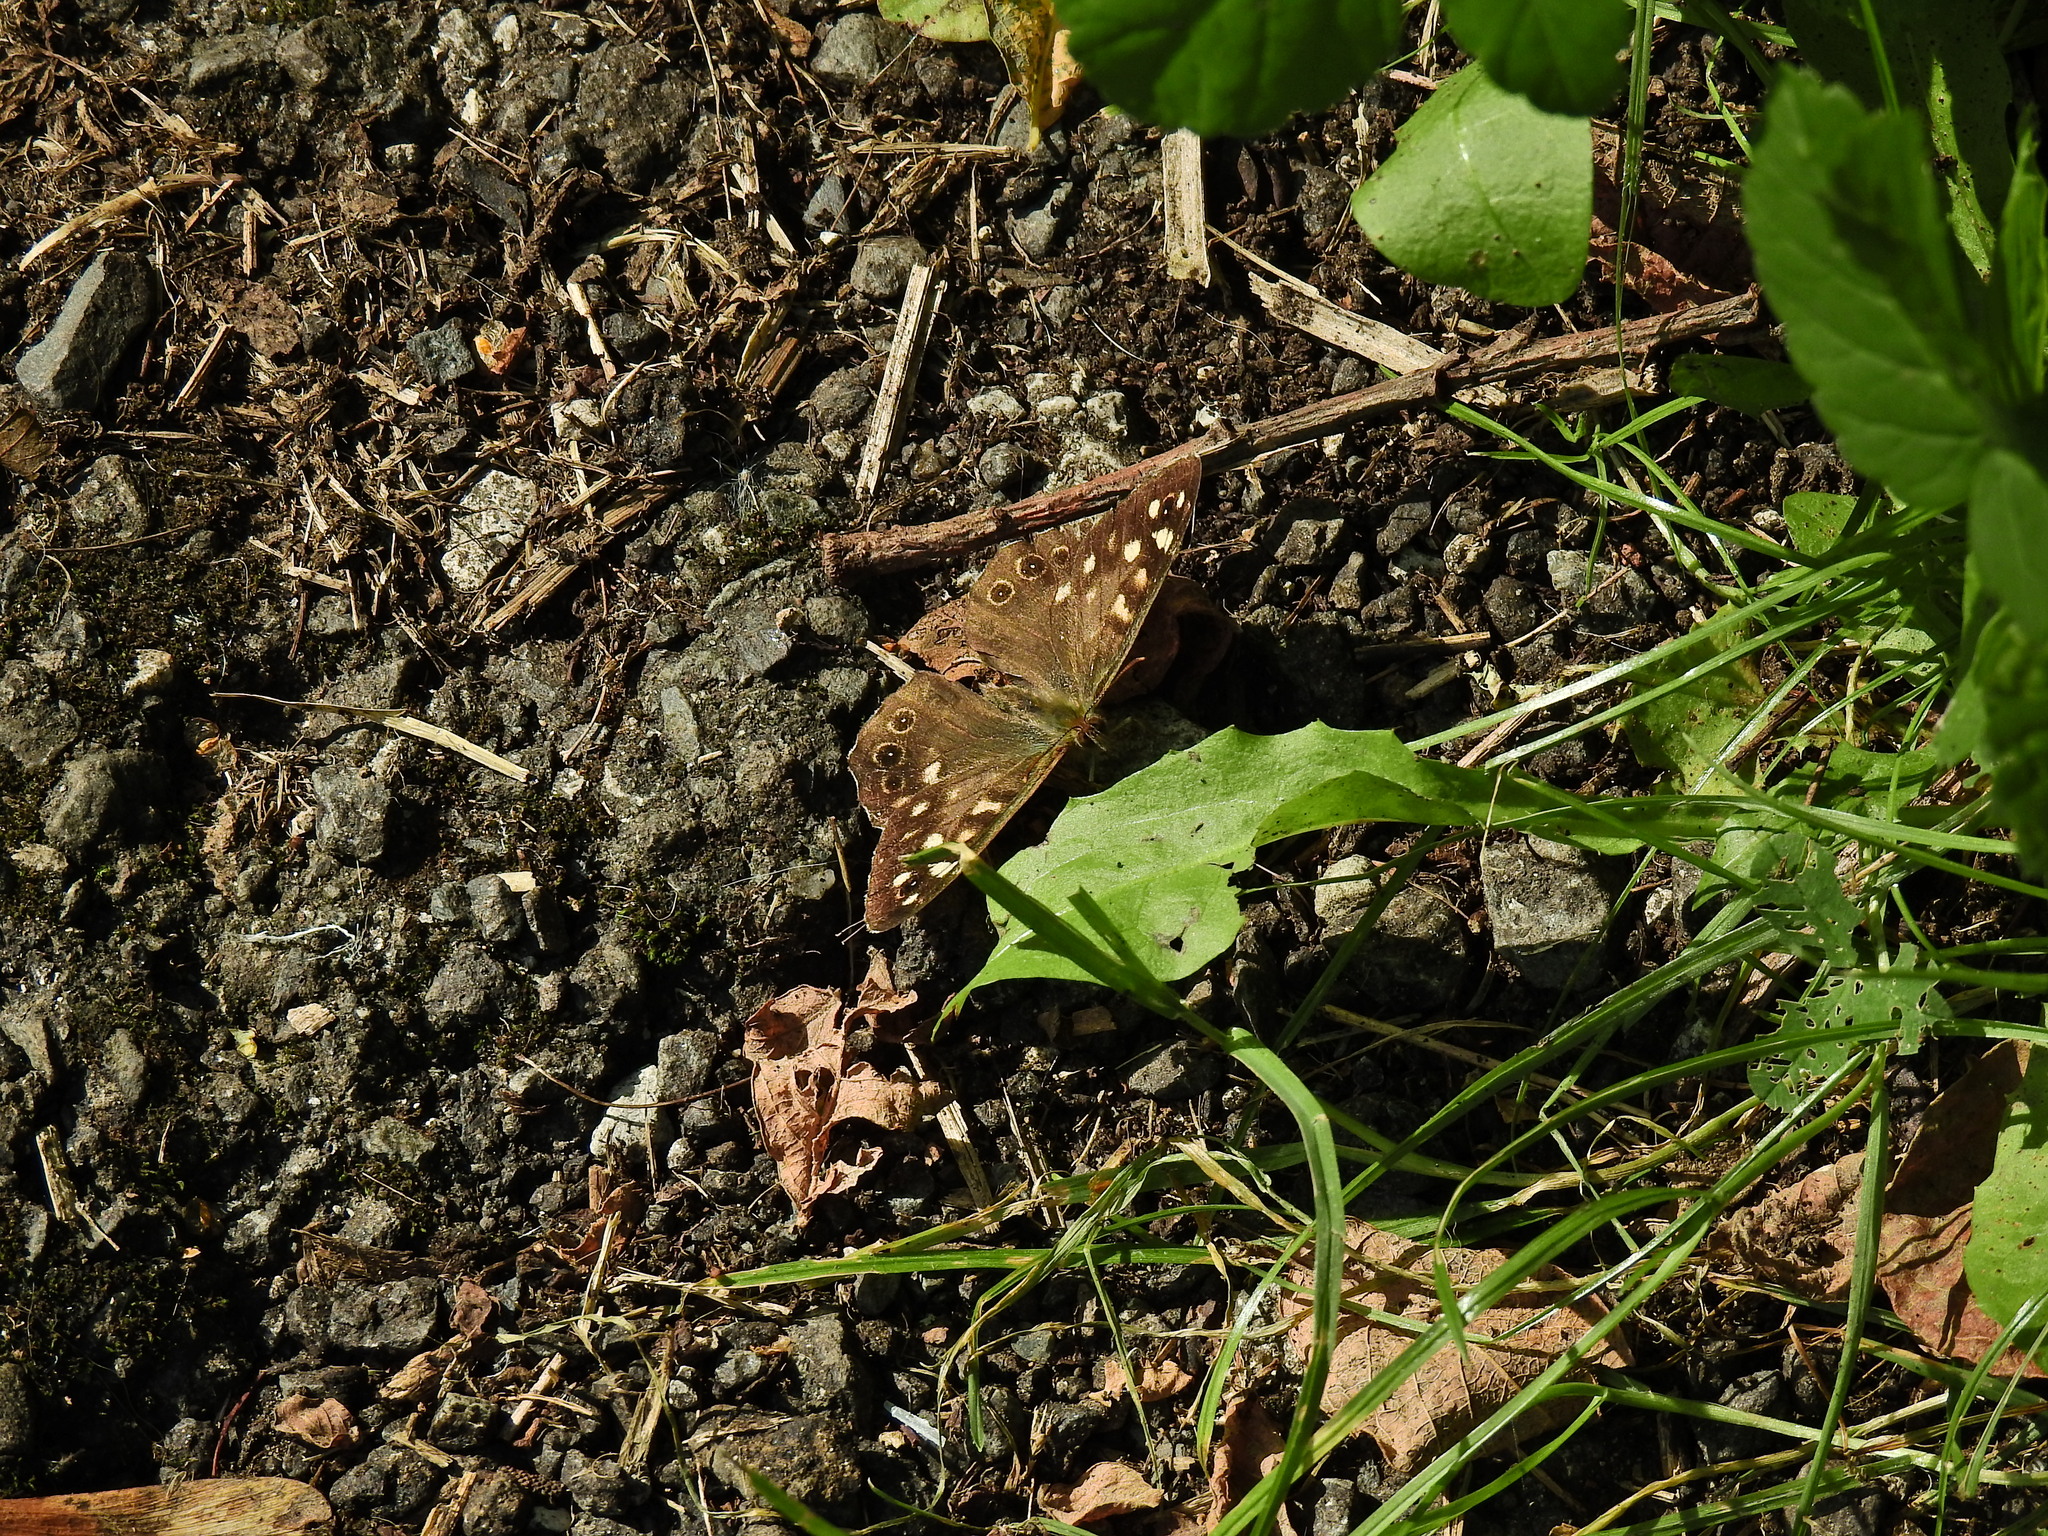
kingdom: Animalia
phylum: Arthropoda
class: Insecta
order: Lepidoptera
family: Nymphalidae
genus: Pararge
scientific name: Pararge aegeria
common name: Speckled wood
